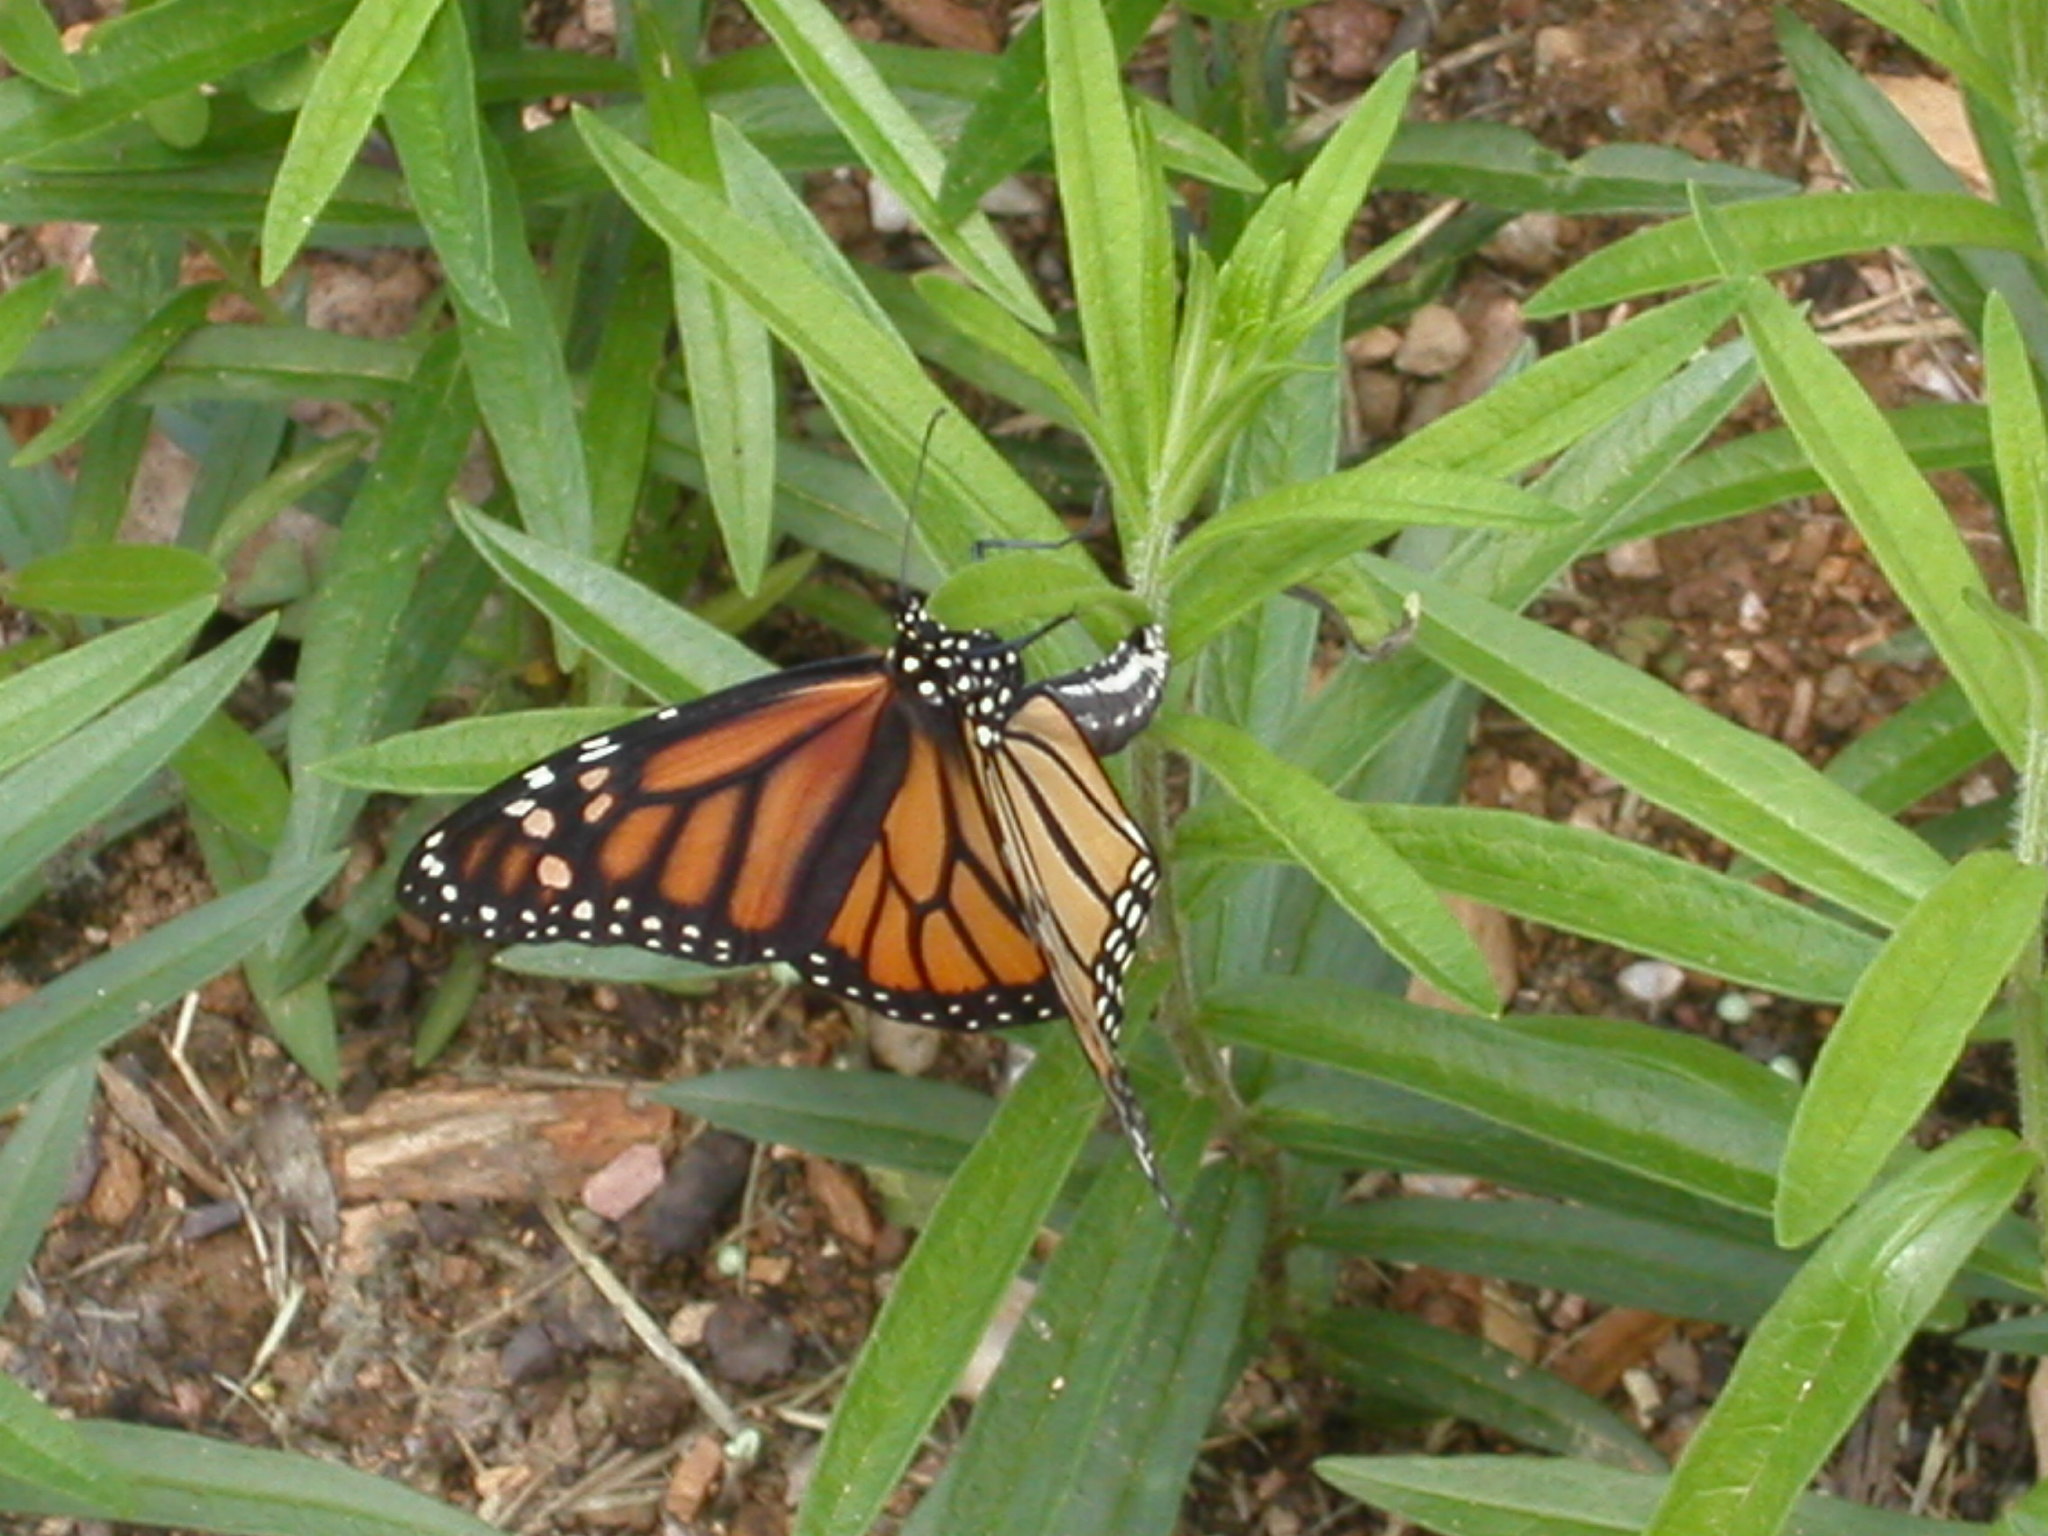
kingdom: Animalia
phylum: Arthropoda
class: Insecta
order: Lepidoptera
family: Nymphalidae
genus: Danaus
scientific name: Danaus plexippus
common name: Monarch
